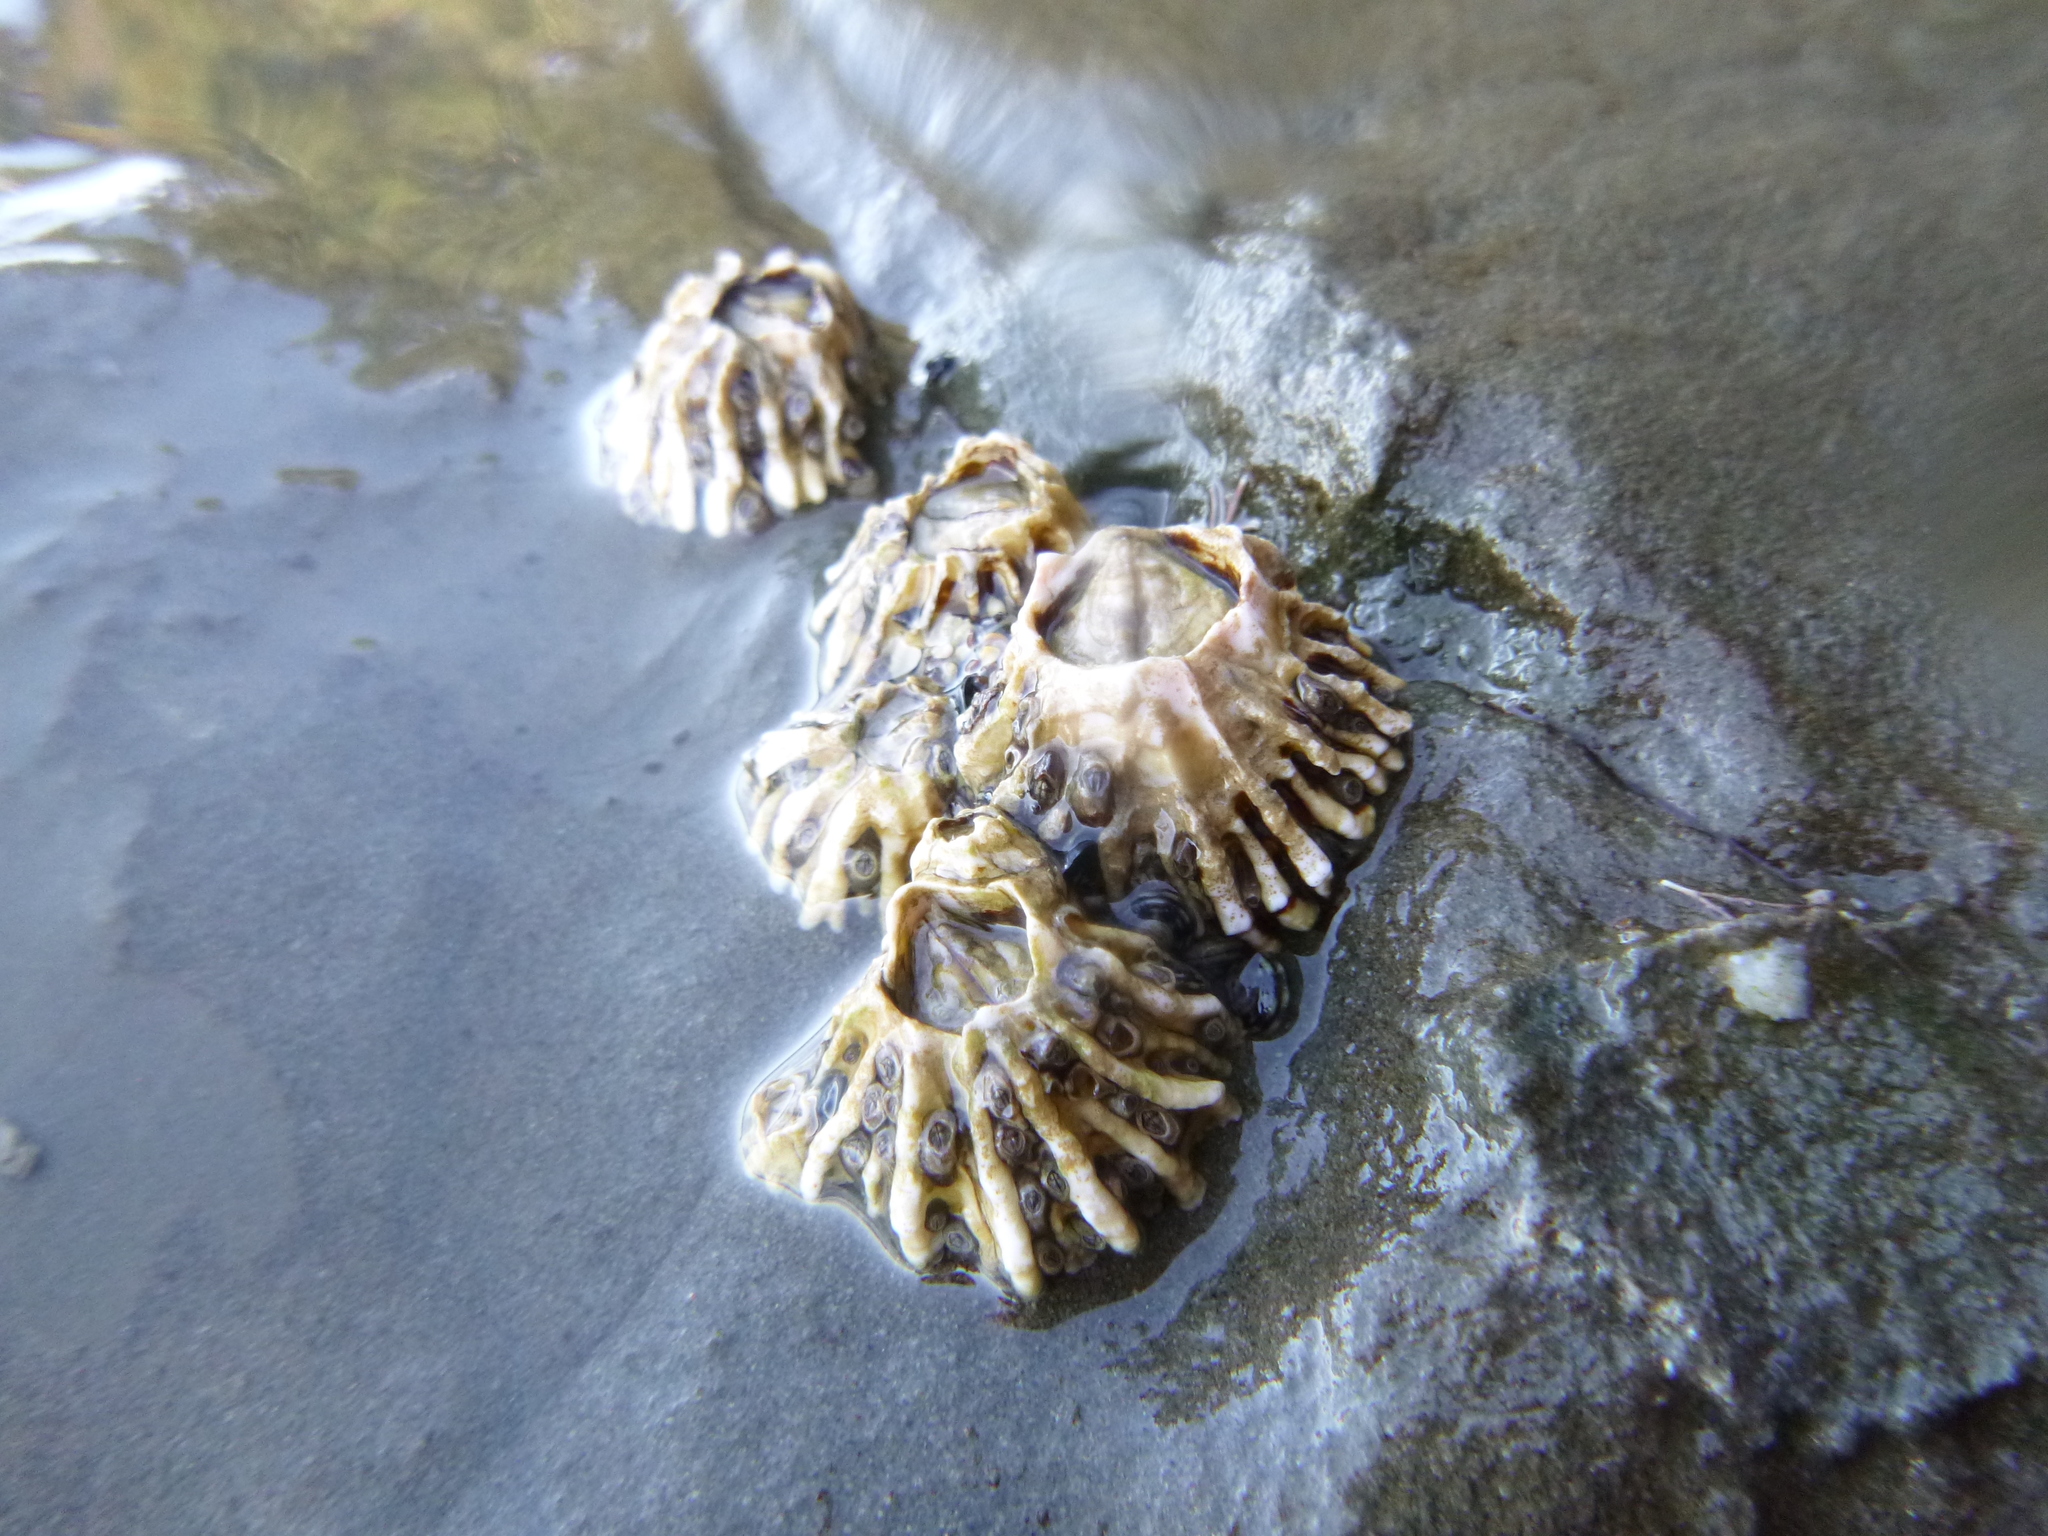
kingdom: Animalia
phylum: Arthropoda
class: Maxillopoda
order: Sessilia
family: Tetraclitidae
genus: Epopella
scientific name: Epopella plicata
